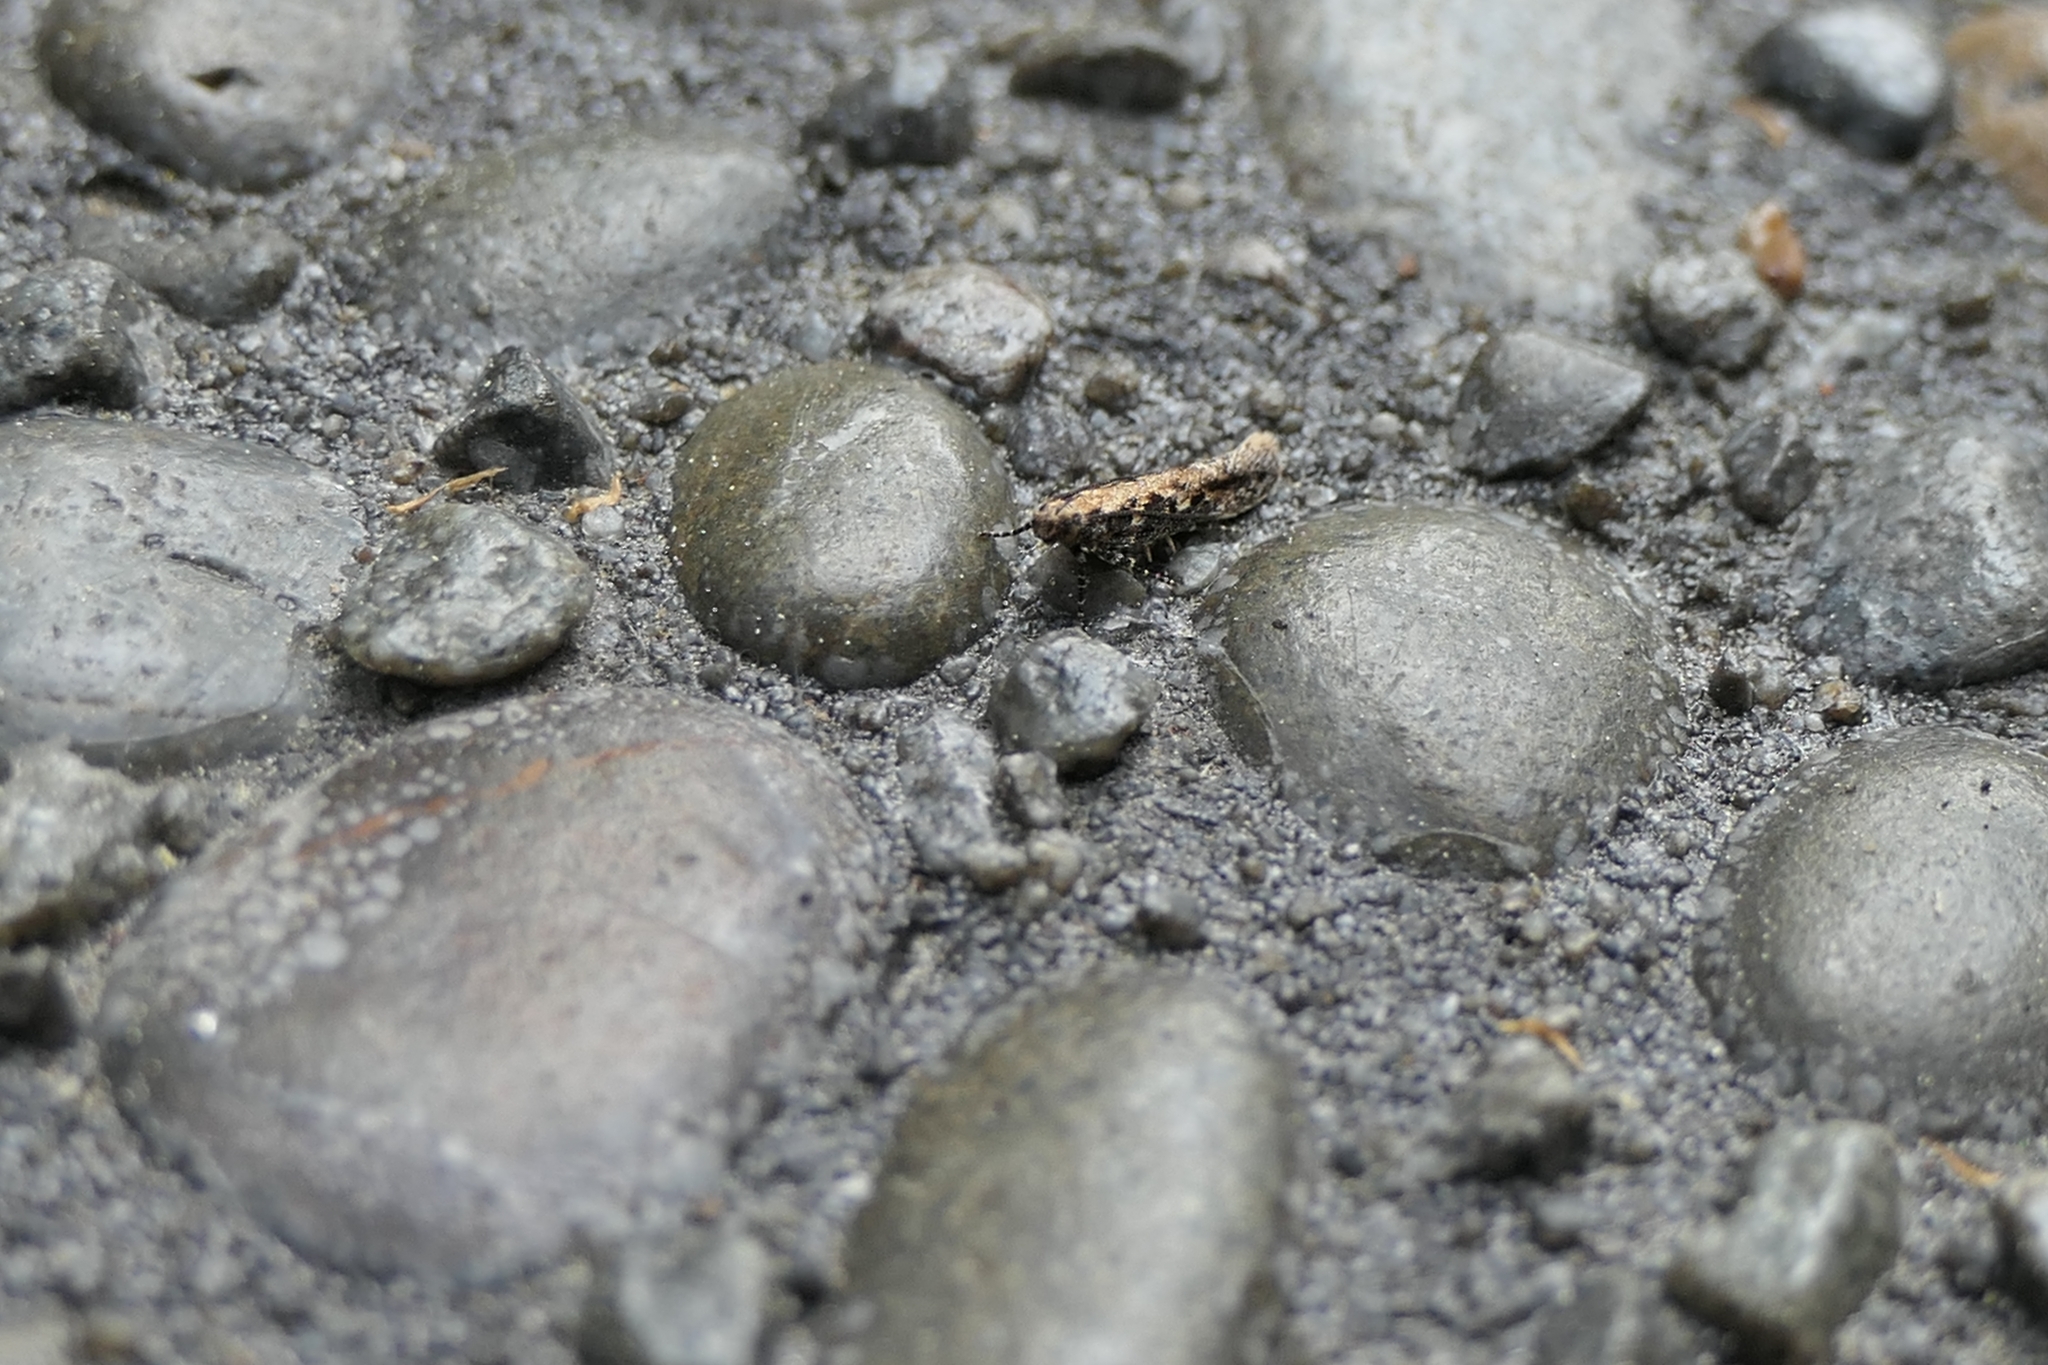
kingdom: Animalia
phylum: Arthropoda
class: Insecta
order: Lepidoptera
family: Gelechiidae
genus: Kiwaia
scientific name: Kiwaia brontophora
